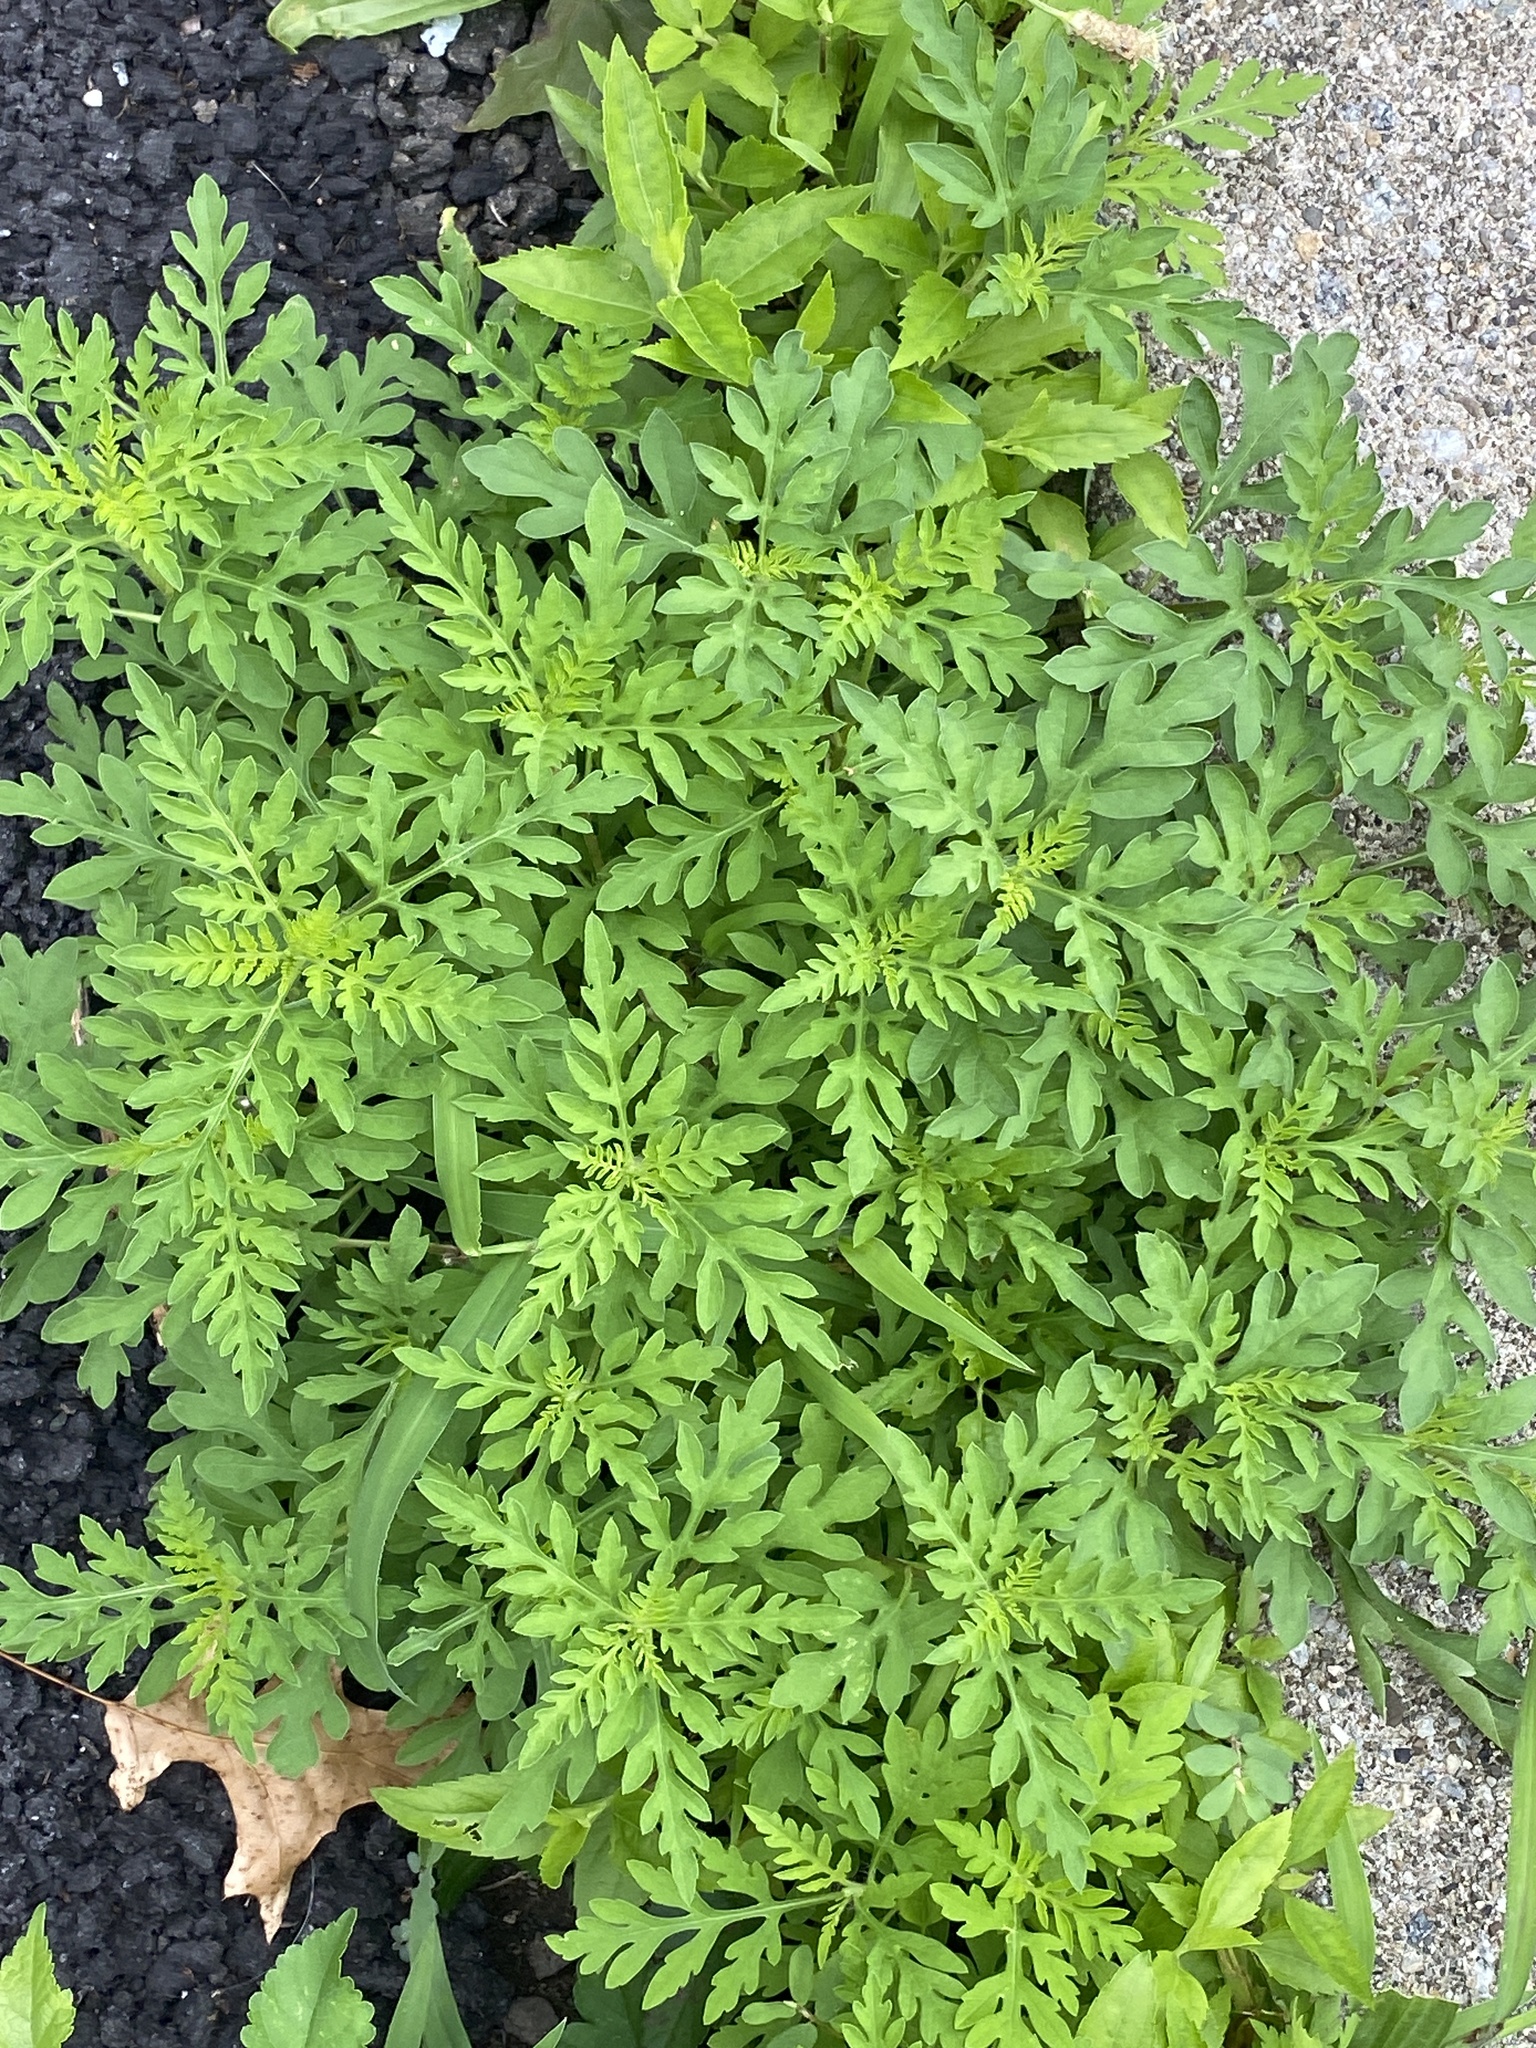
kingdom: Plantae
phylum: Tracheophyta
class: Magnoliopsida
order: Asterales
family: Asteraceae
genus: Ambrosia
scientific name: Ambrosia artemisiifolia
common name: Annual ragweed
